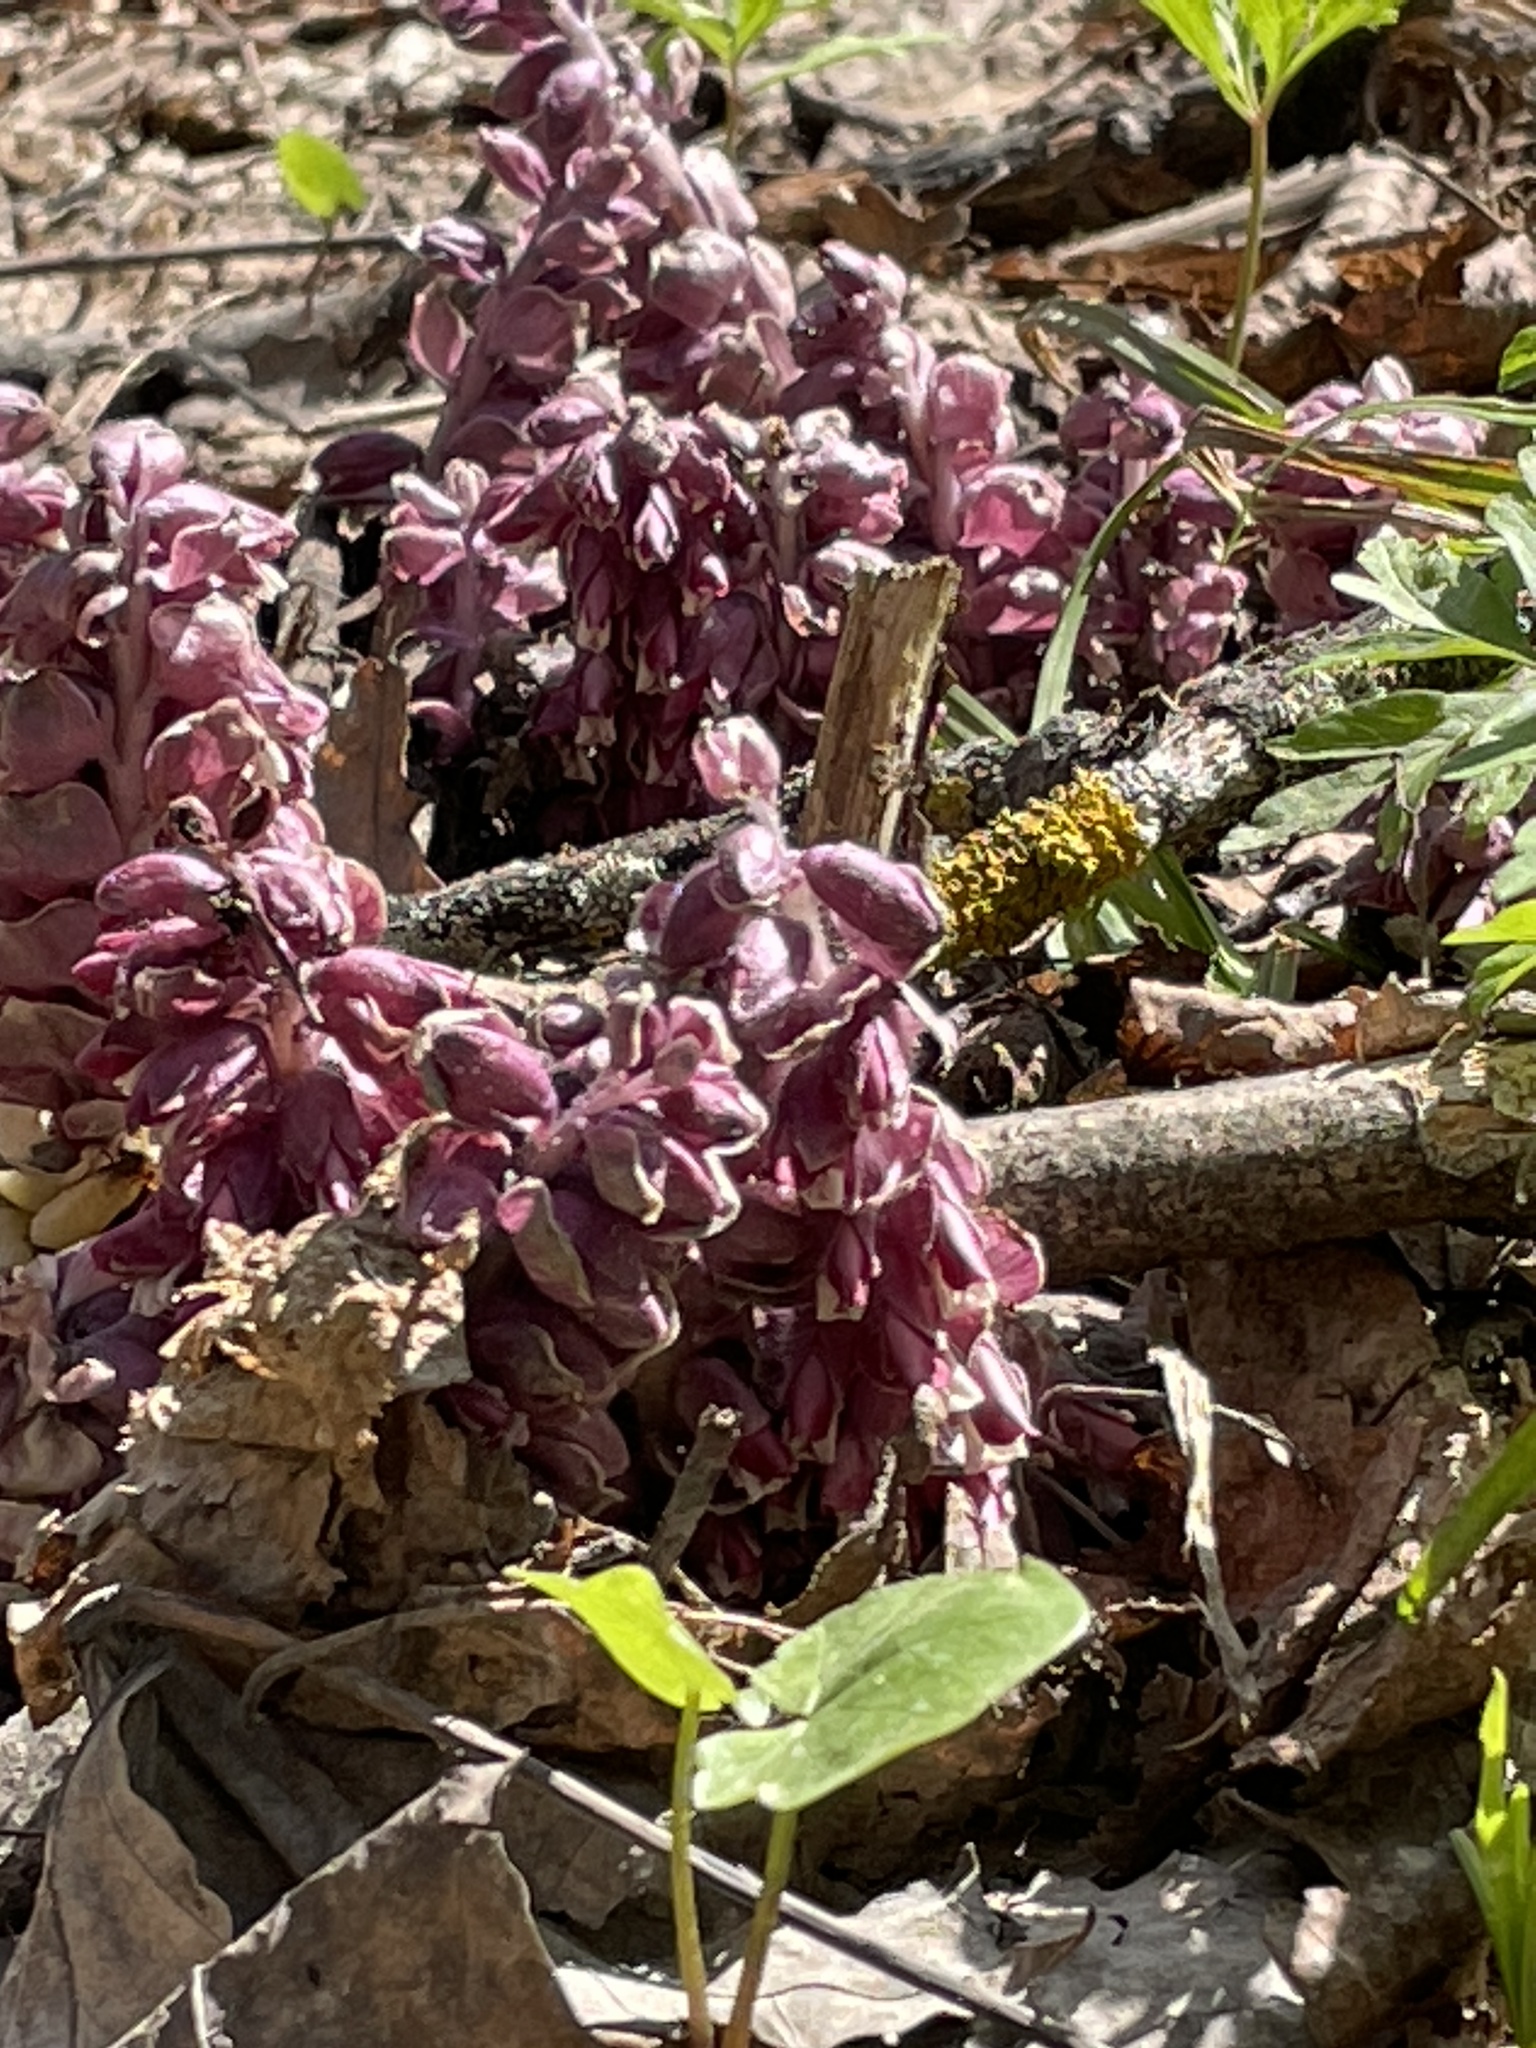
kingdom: Plantae
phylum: Tracheophyta
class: Magnoliopsida
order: Lamiales
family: Orobanchaceae
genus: Lathraea
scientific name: Lathraea squamaria
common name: Toothwort
